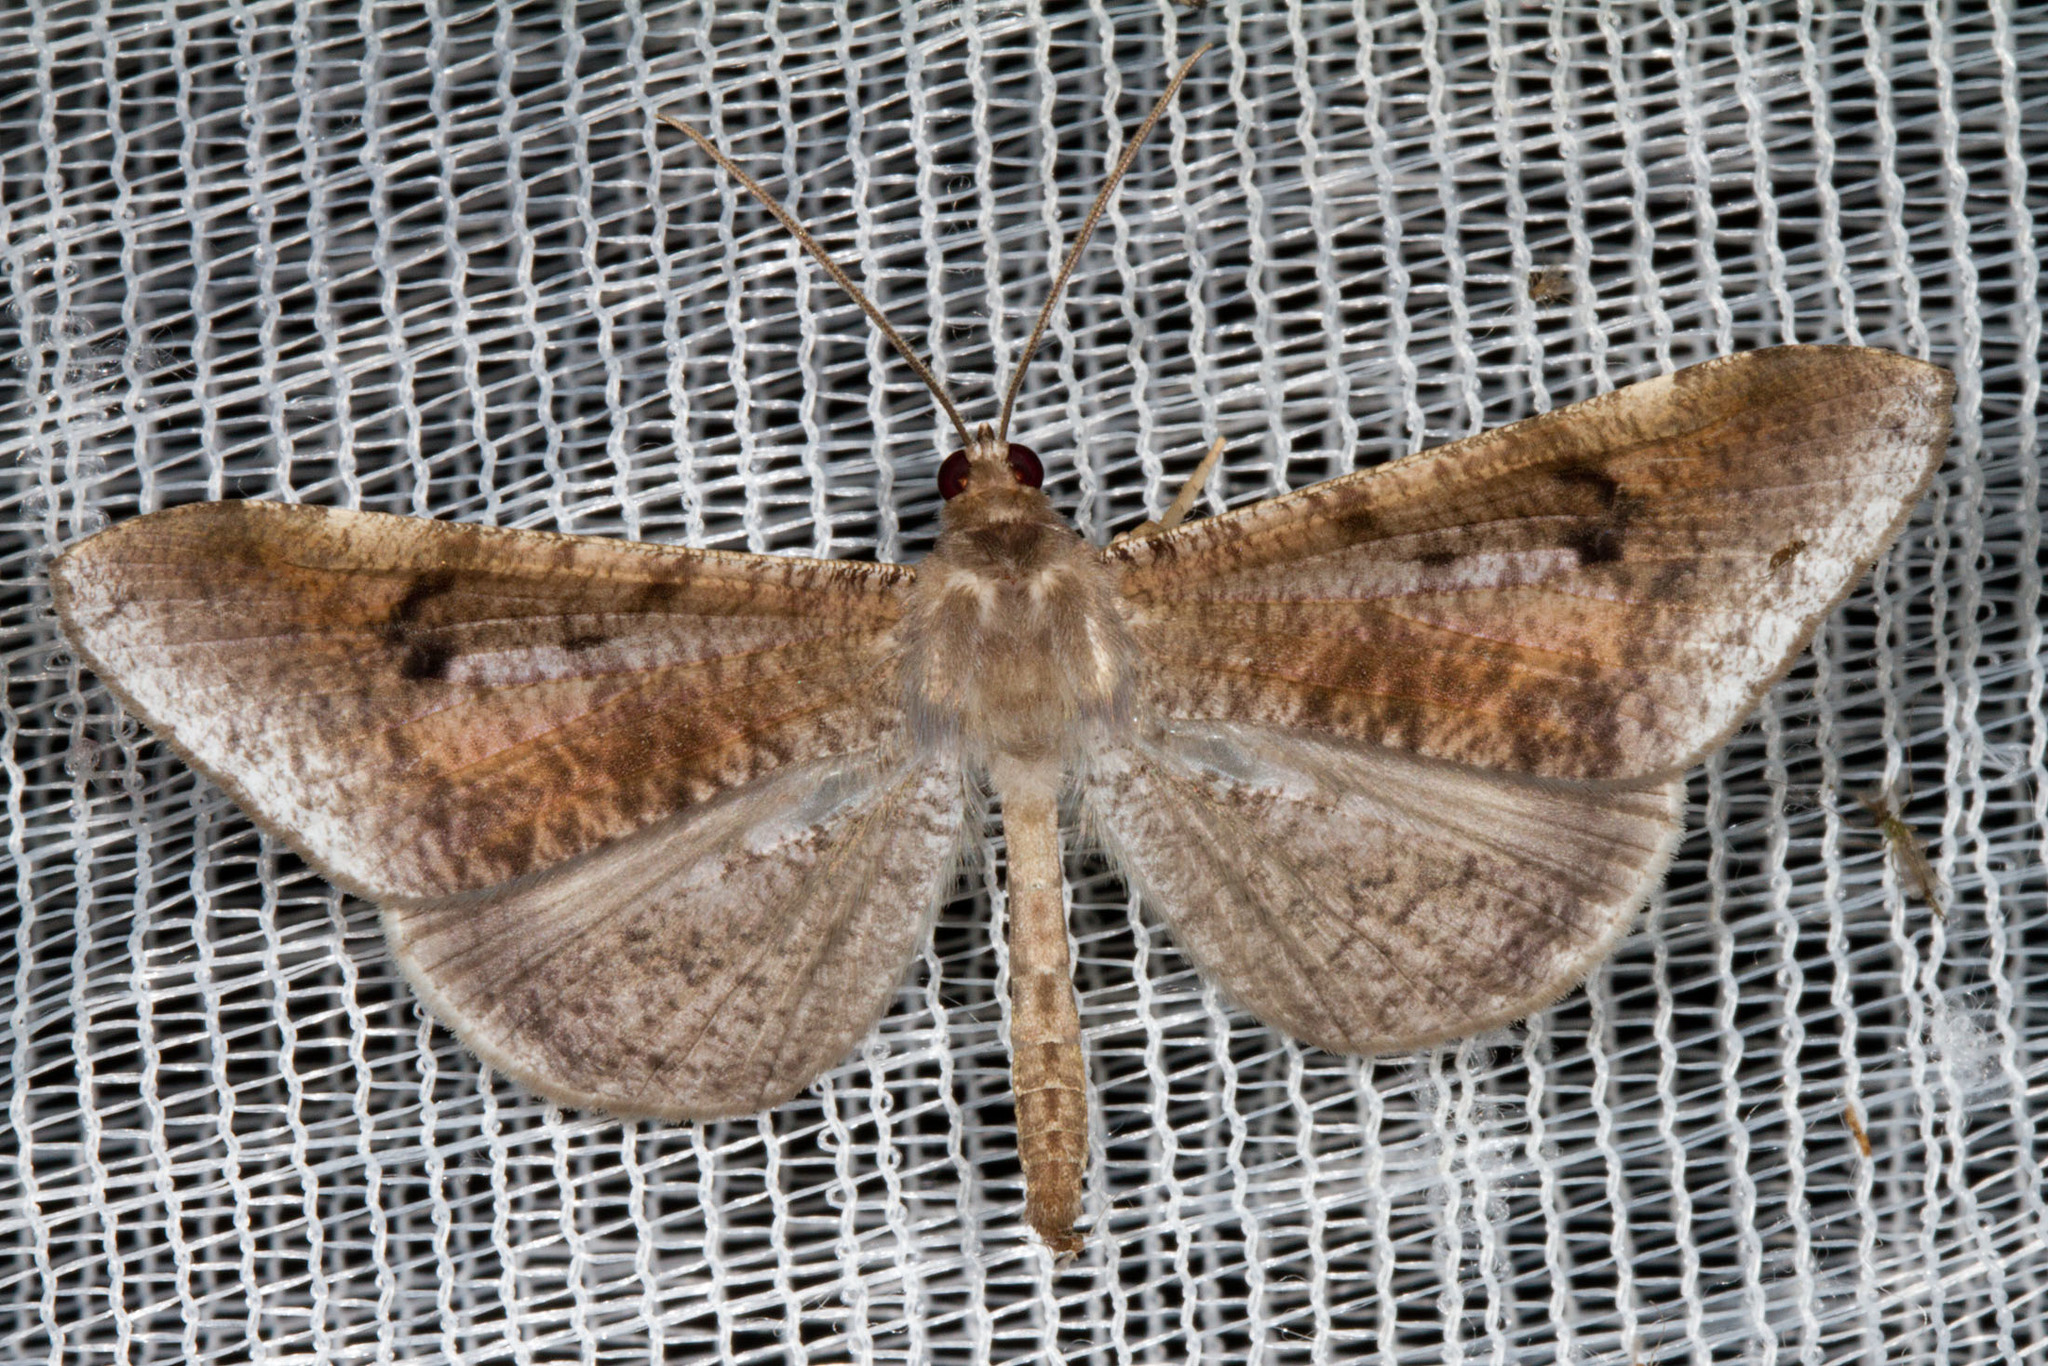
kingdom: Animalia
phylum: Arthropoda
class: Insecta
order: Lepidoptera
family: Hedylidae
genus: Macrosoma
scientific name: Macrosoma nigrimacula
